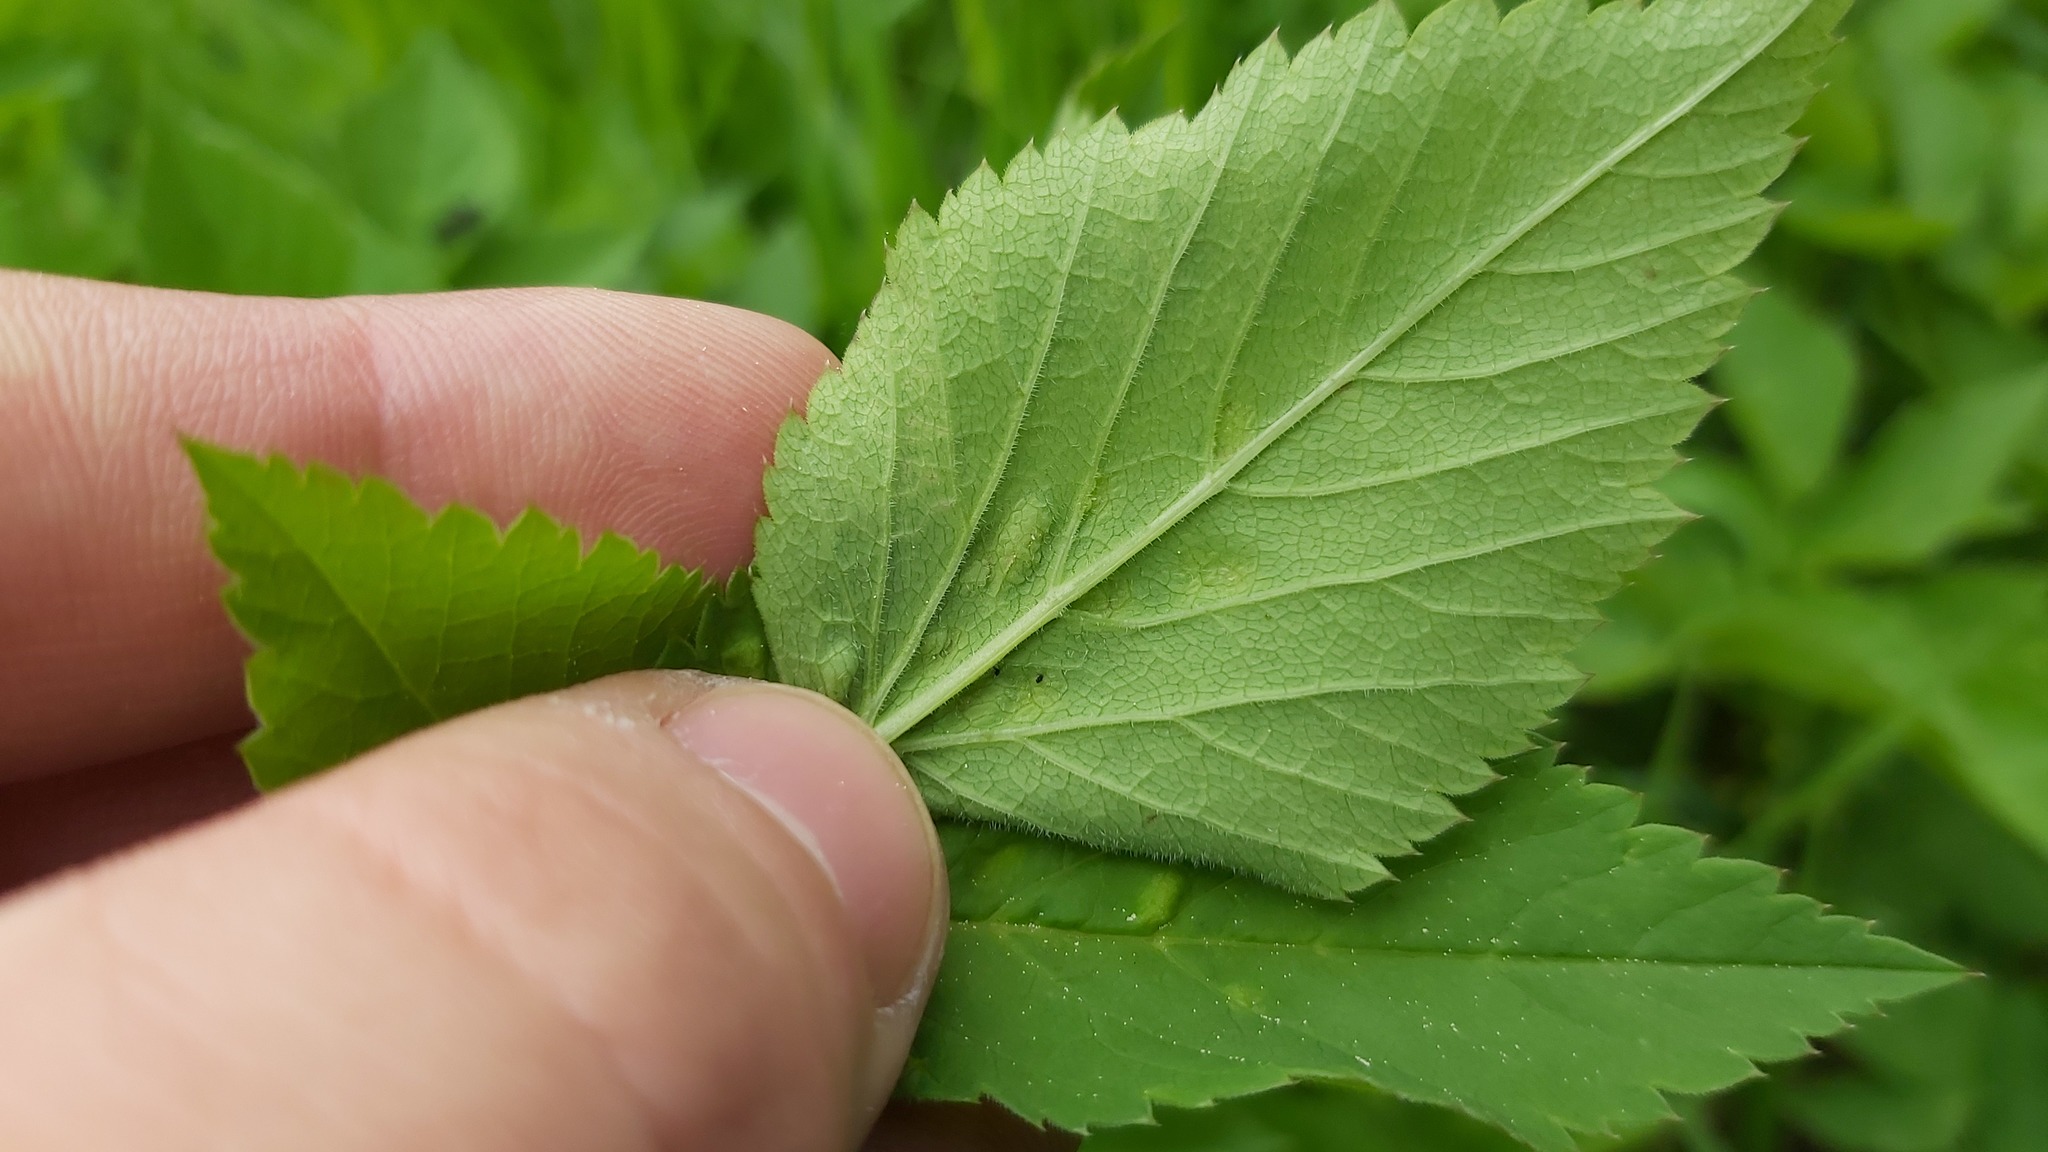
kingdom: Animalia
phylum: Arthropoda
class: Insecta
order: Hemiptera
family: Triozidae
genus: Trioza
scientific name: Trioza flavipennis
